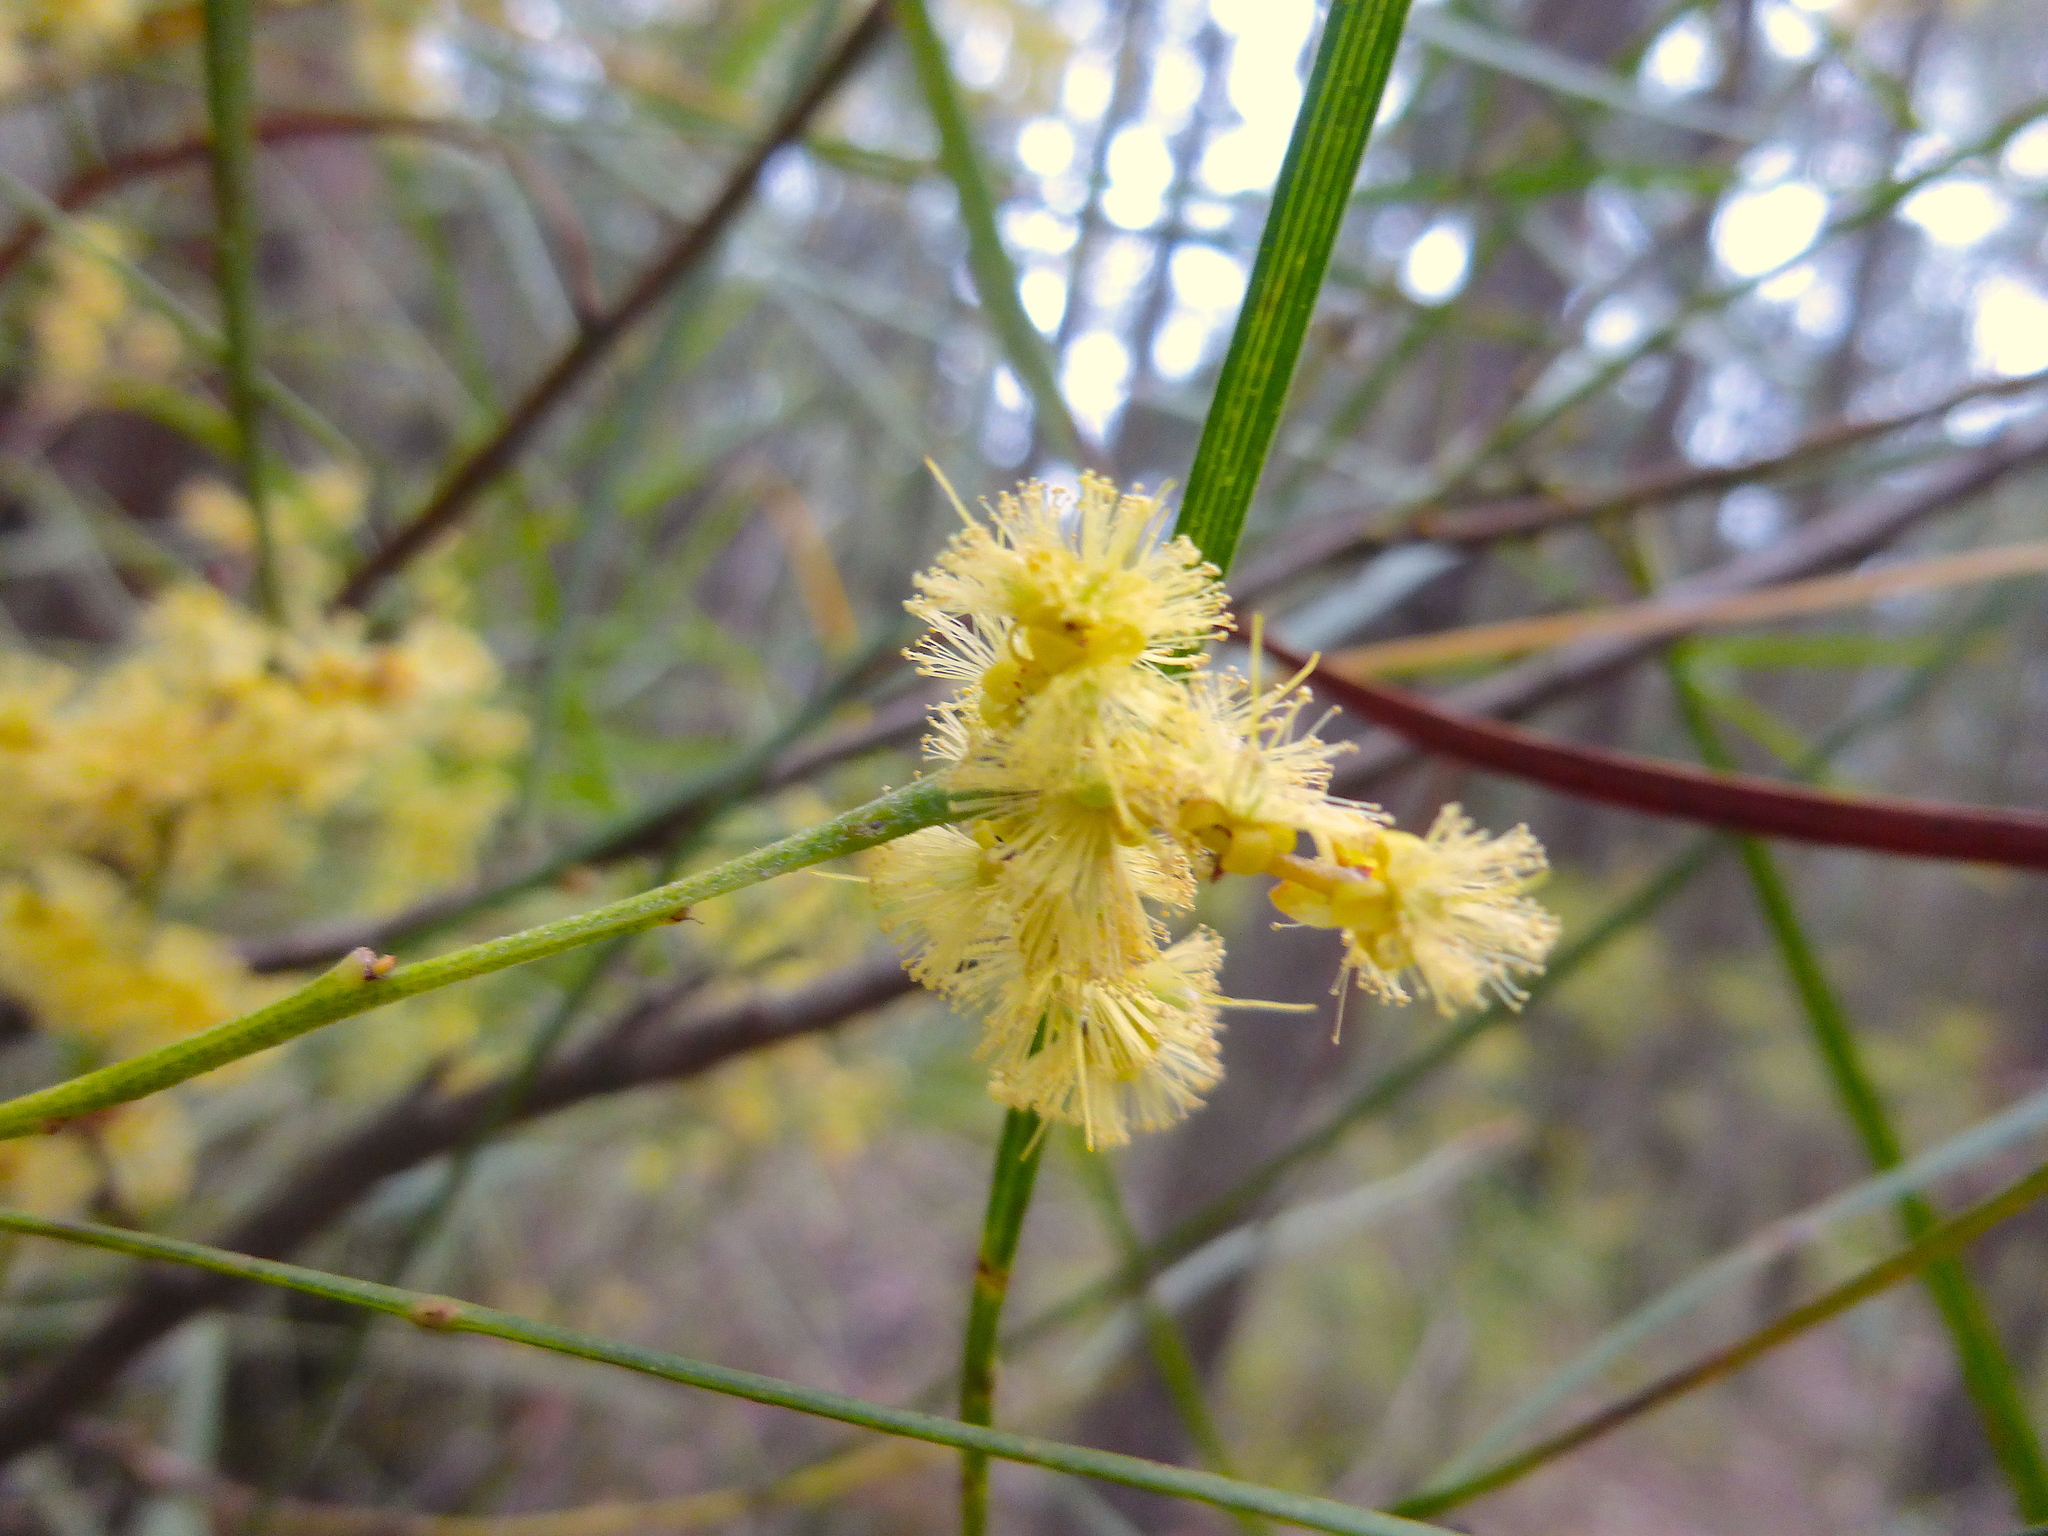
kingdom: Plantae
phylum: Tracheophyta
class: Magnoliopsida
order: Fabales
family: Fabaceae
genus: Acacia
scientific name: Acacia mucronata
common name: Variable sallow wattle
